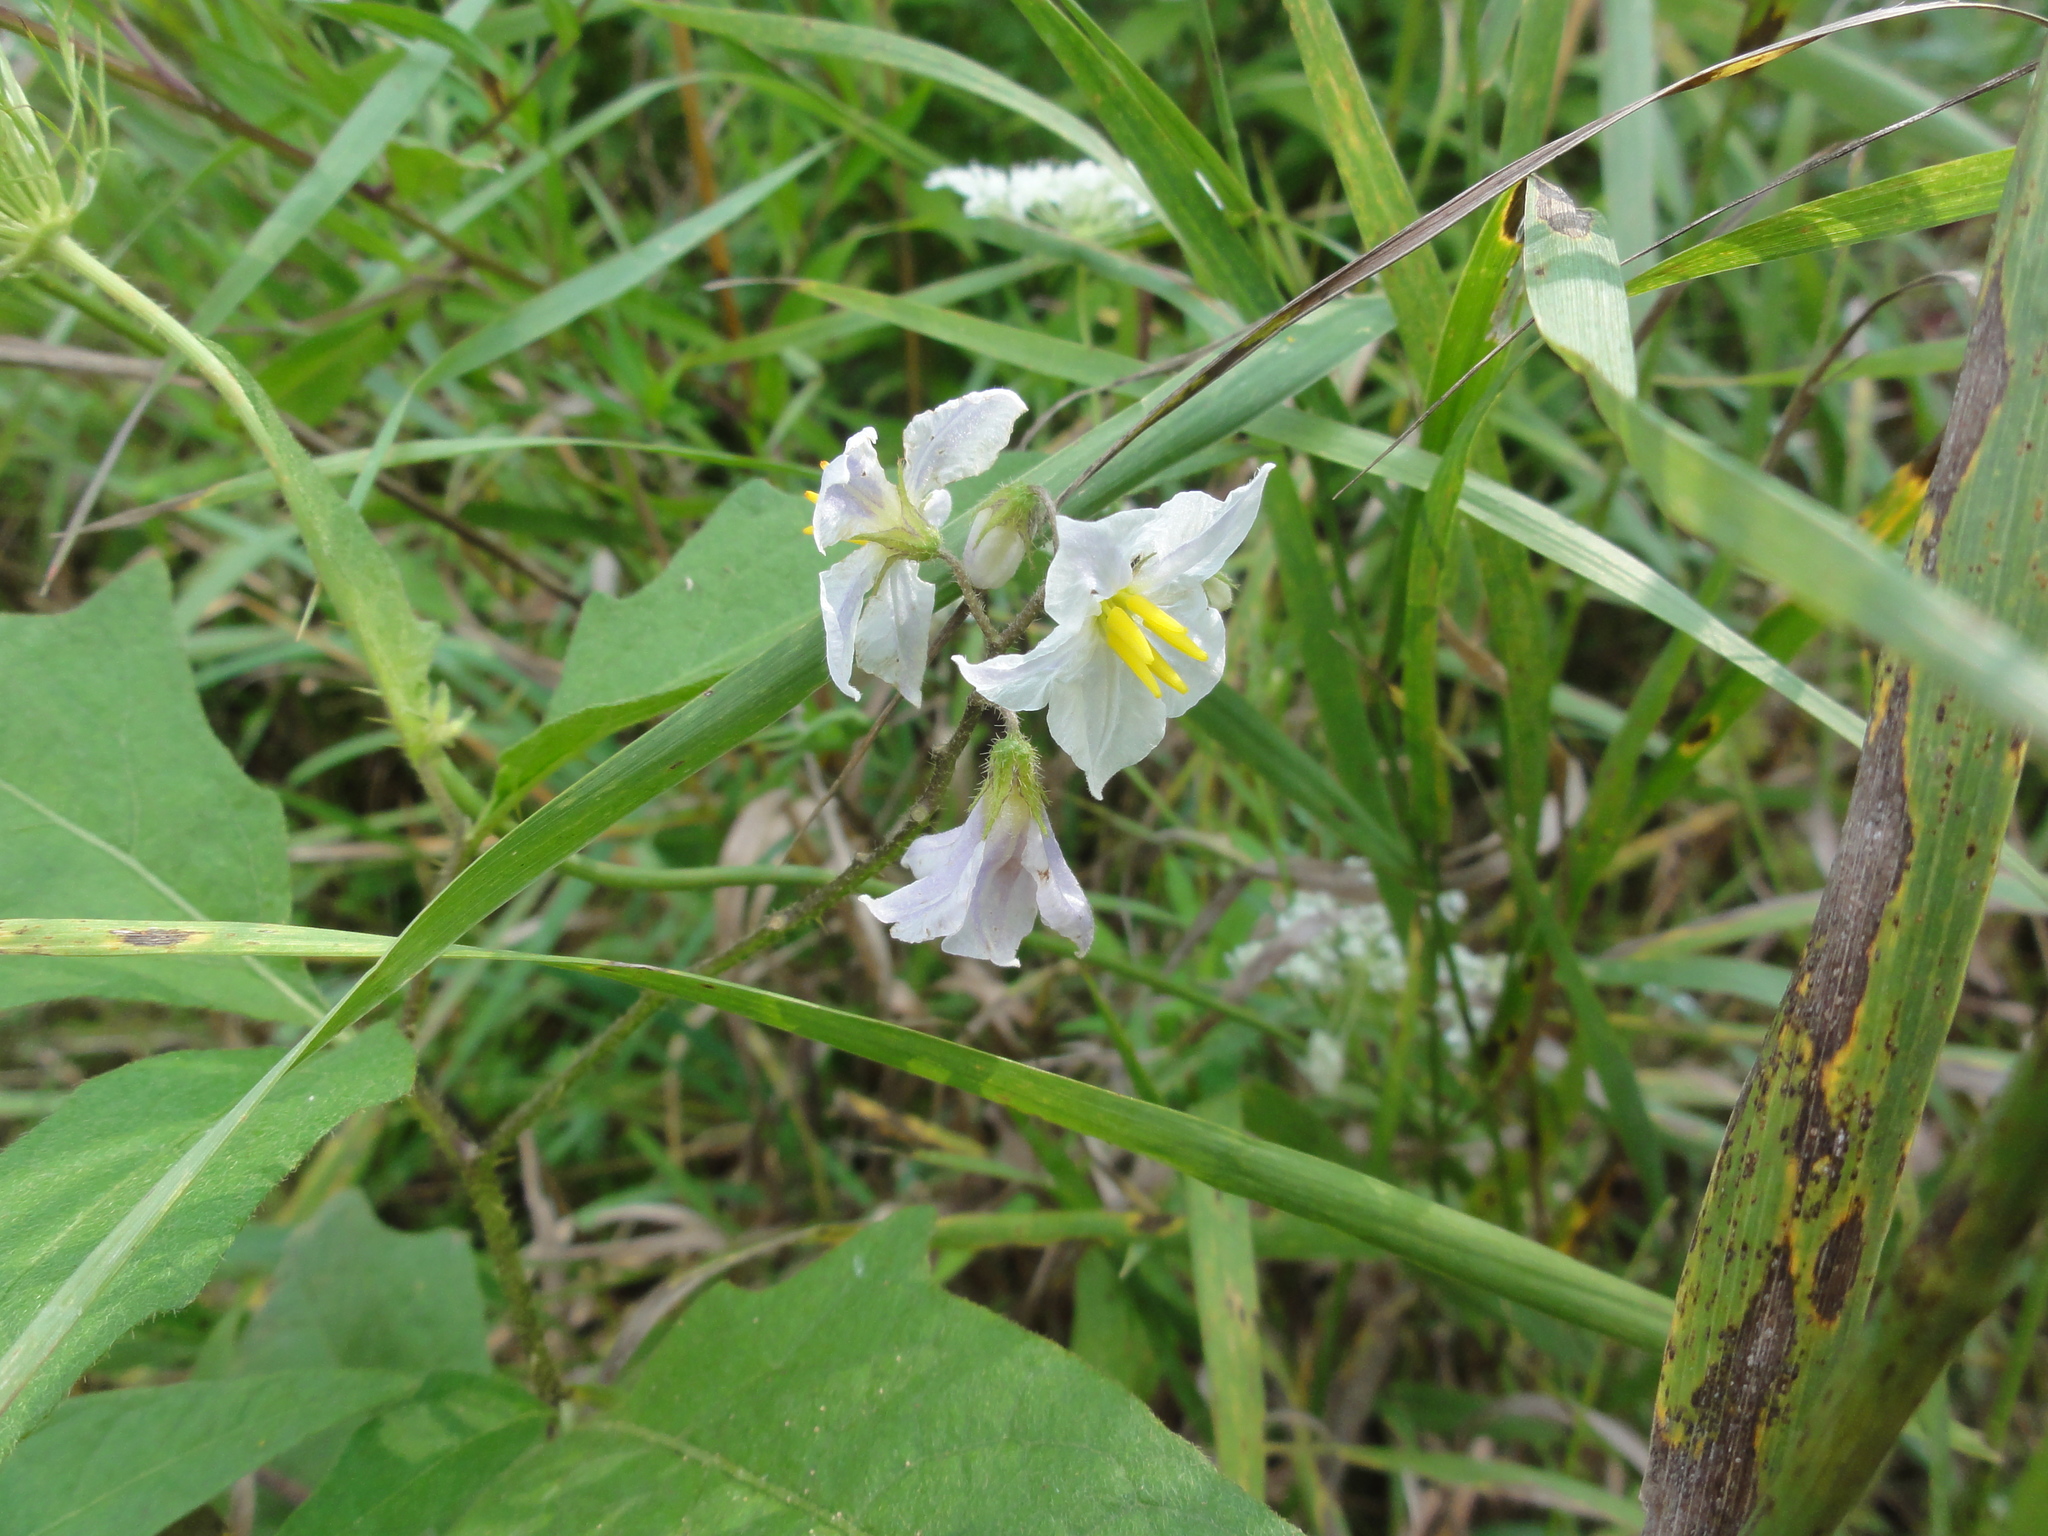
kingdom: Plantae
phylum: Tracheophyta
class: Magnoliopsida
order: Solanales
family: Solanaceae
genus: Solanum
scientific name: Solanum carolinense
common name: Horse-nettle
